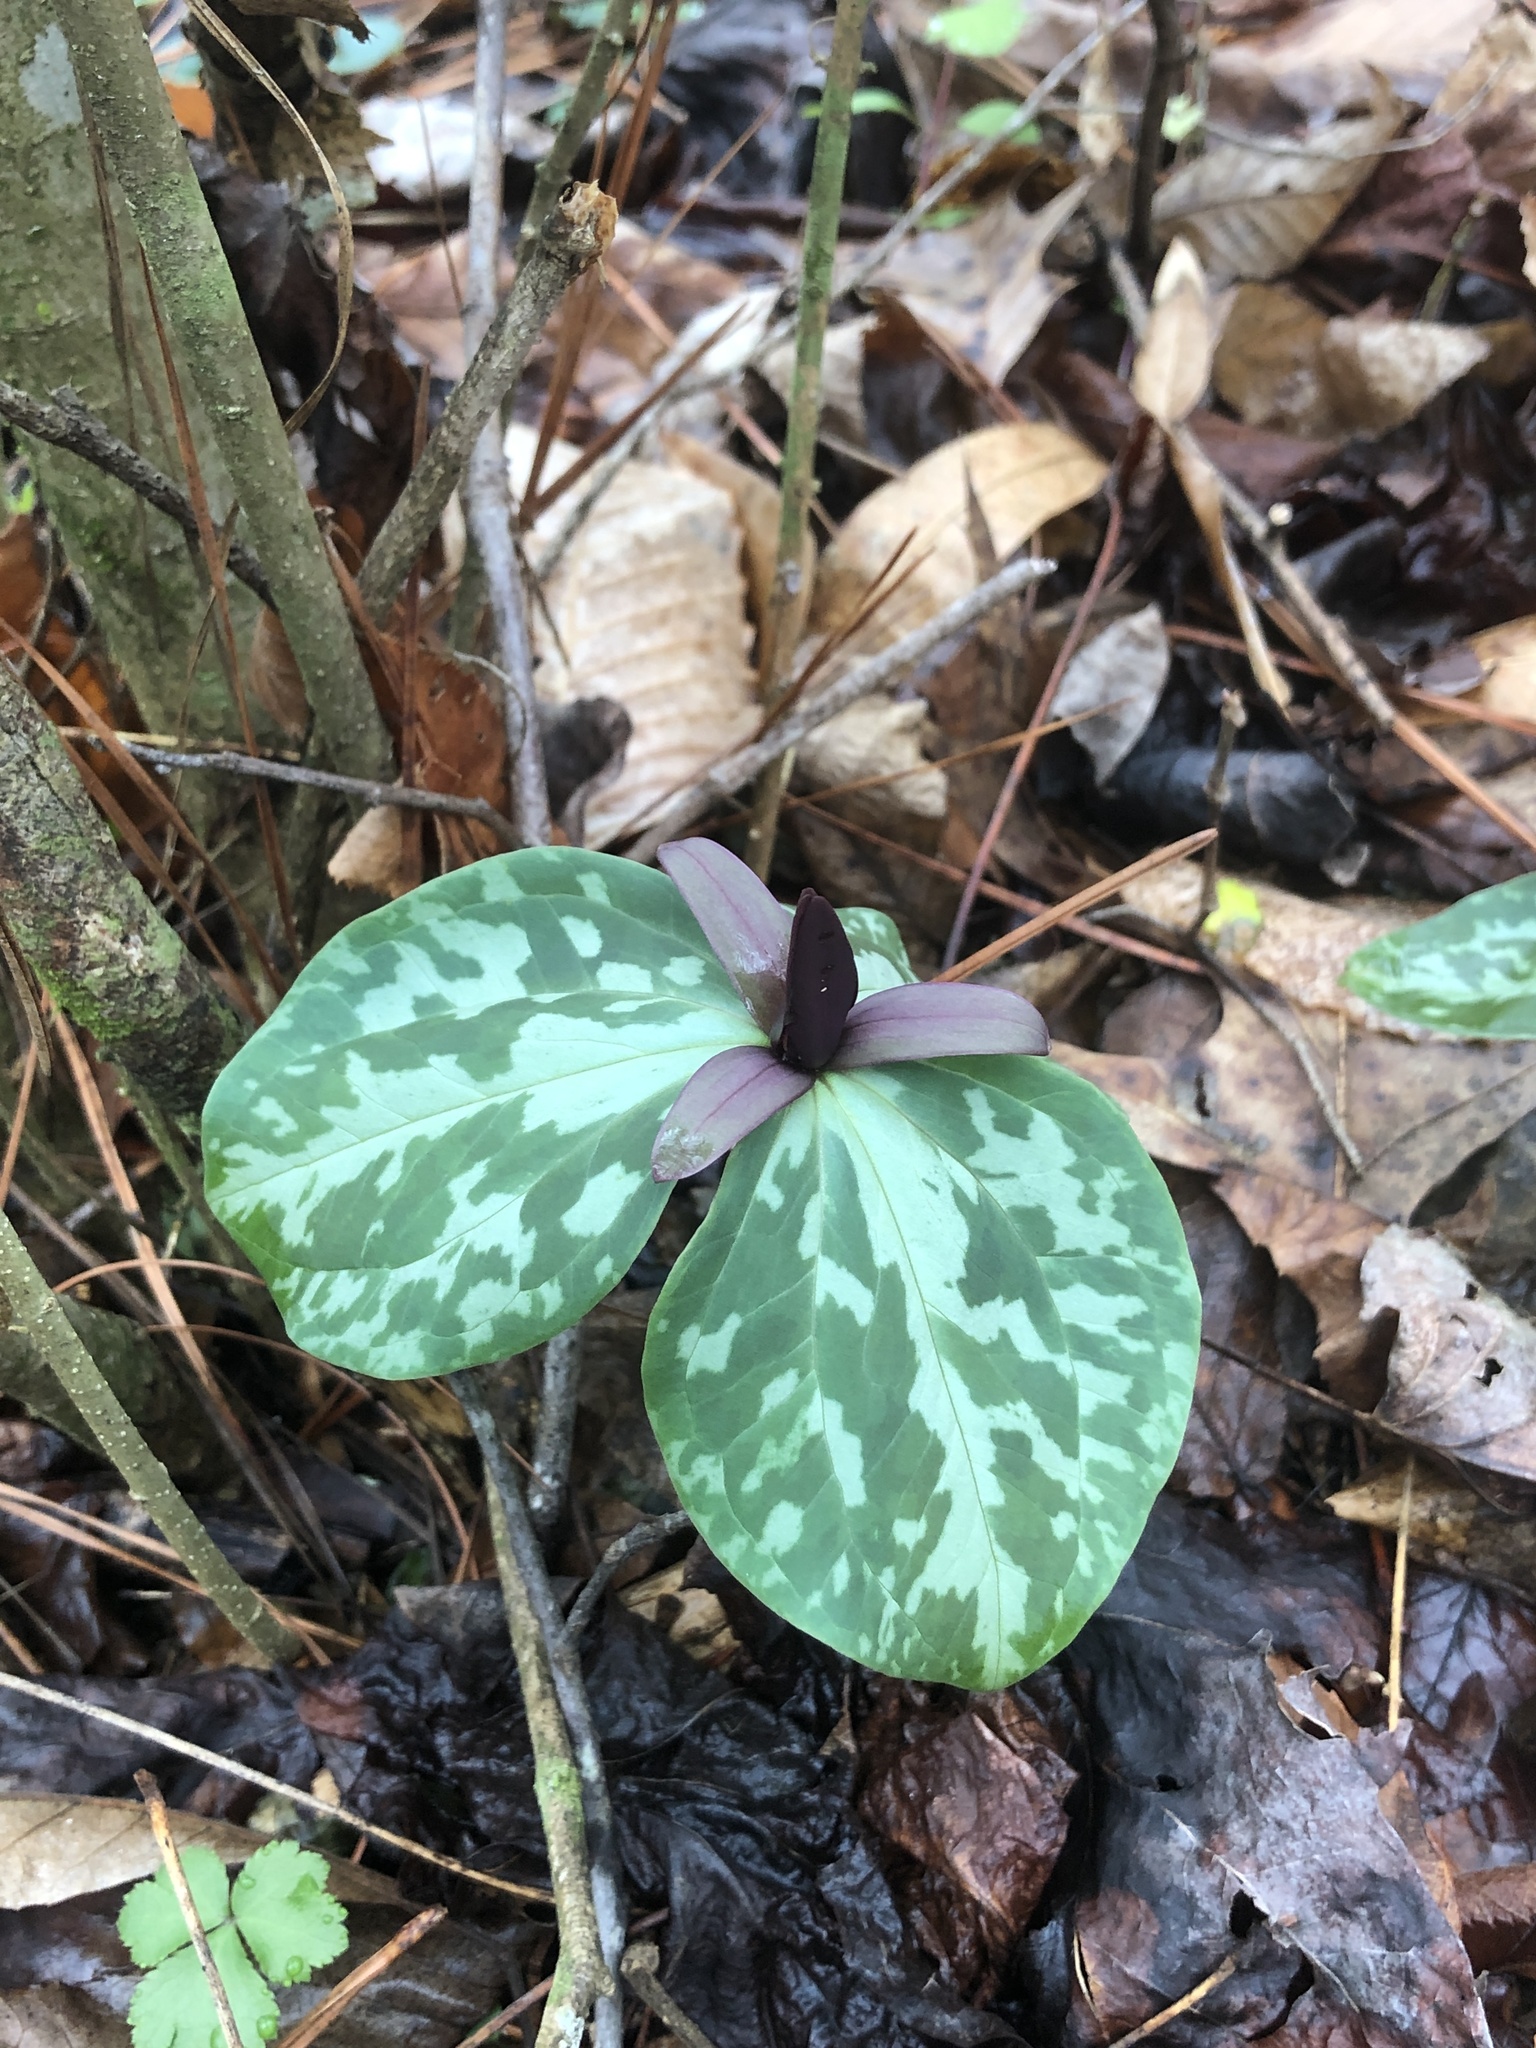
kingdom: Plantae
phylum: Tracheophyta
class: Liliopsida
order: Liliales
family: Melanthiaceae
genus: Trillium
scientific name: Trillium cuneatum
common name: Cuneate trillium
